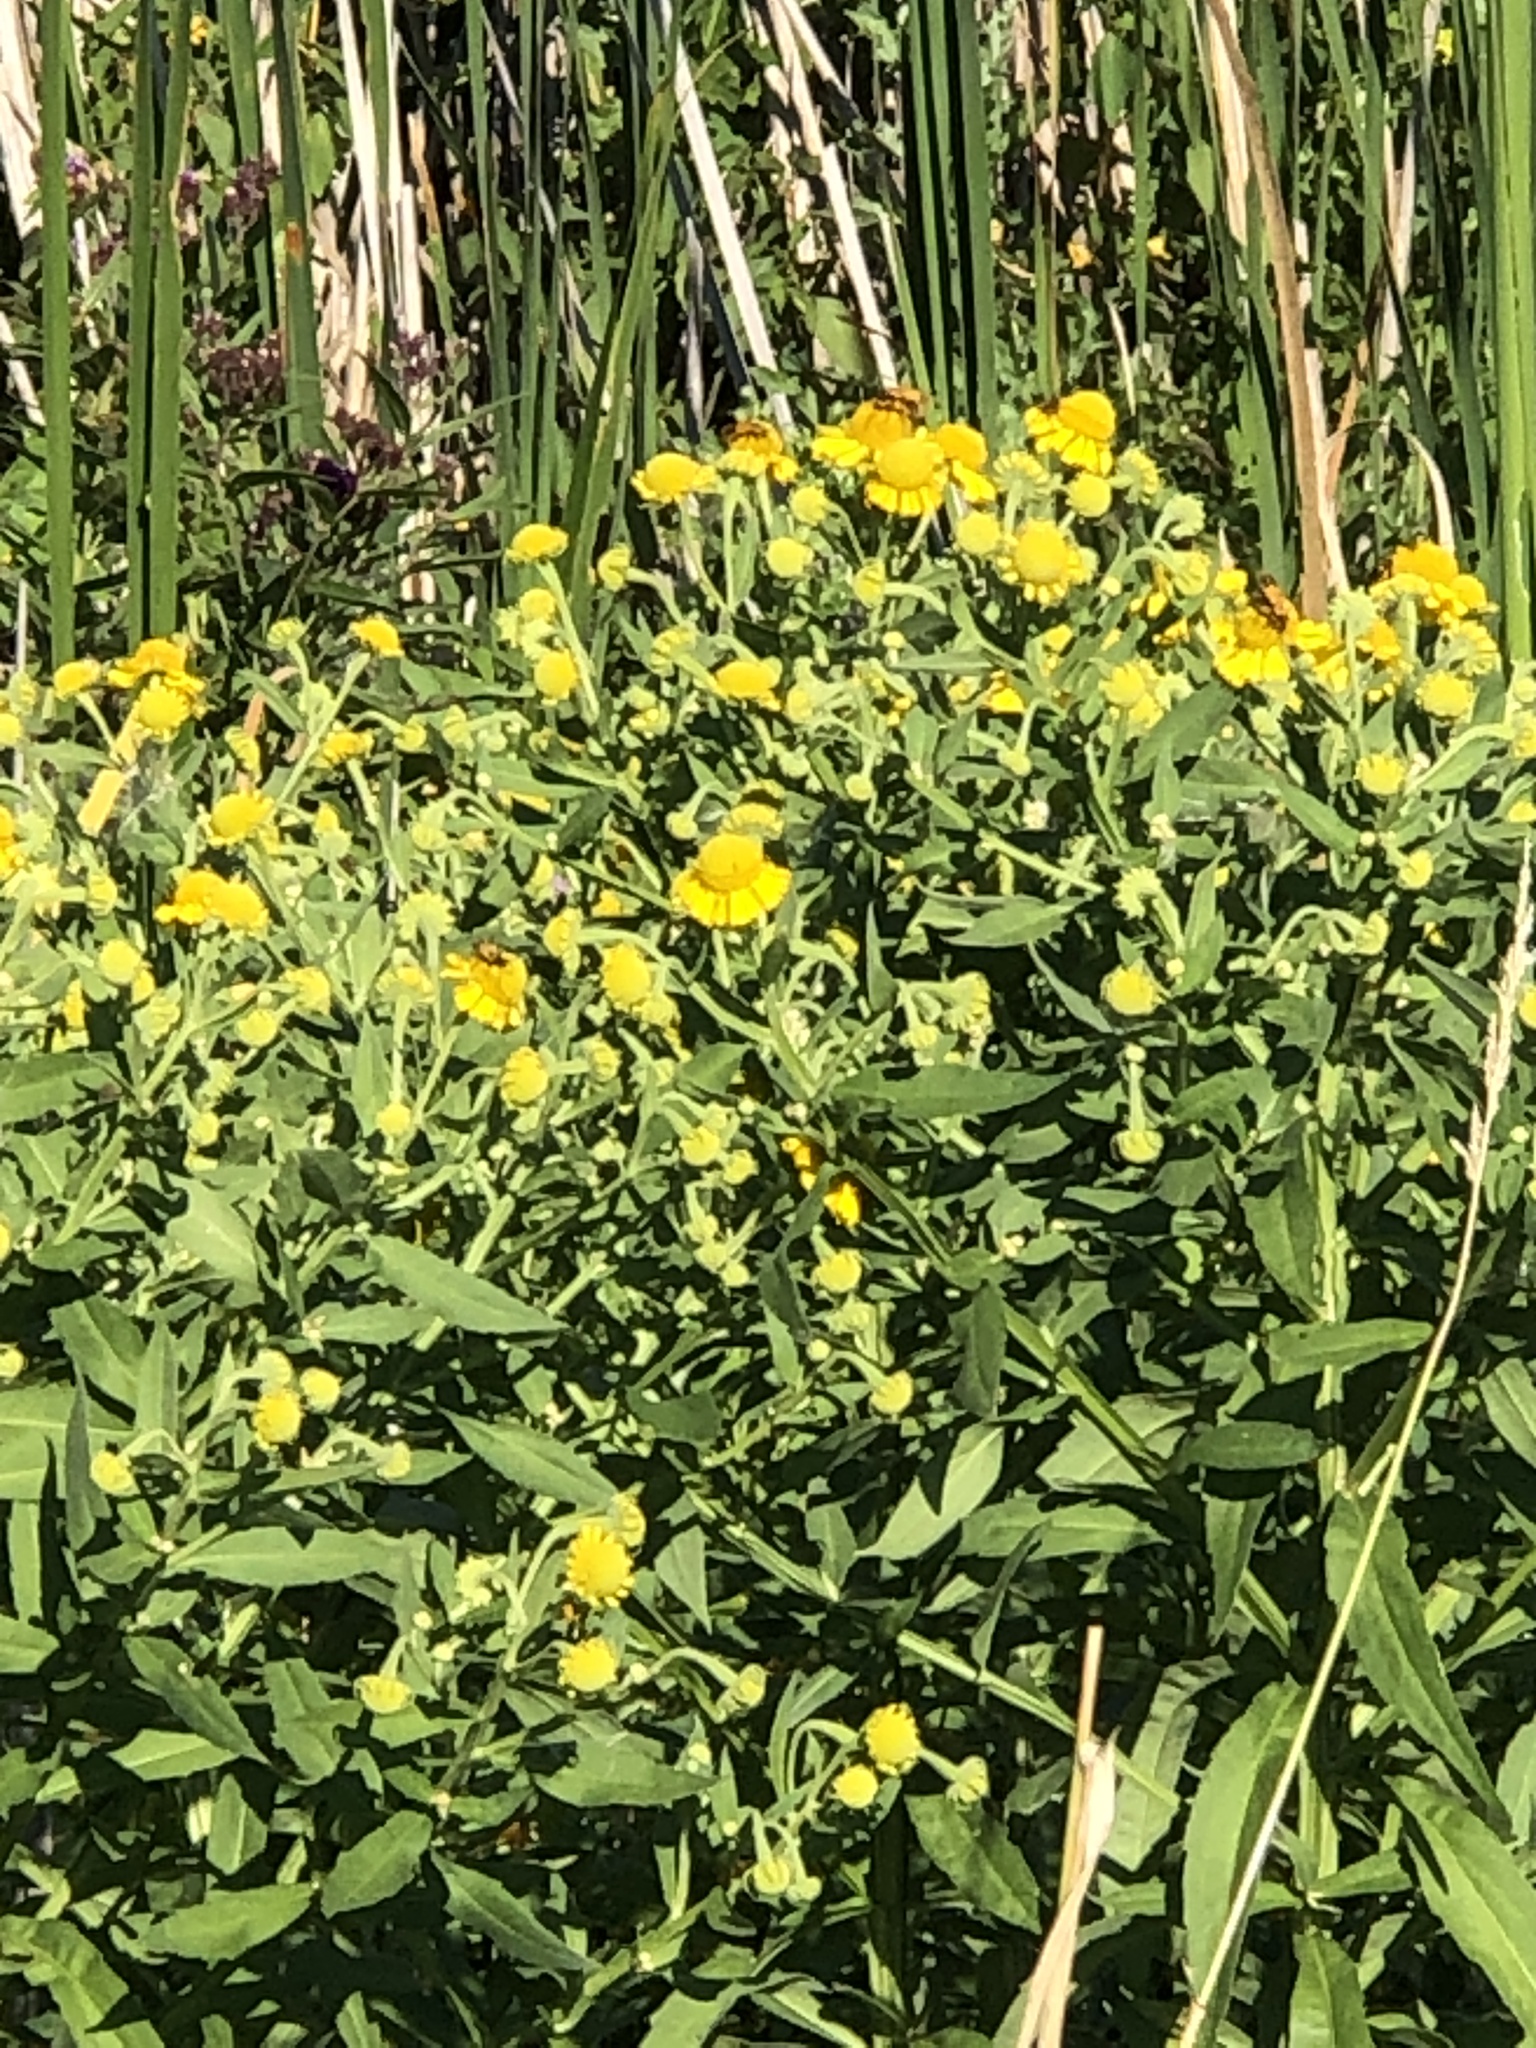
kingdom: Plantae
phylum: Tracheophyta
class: Magnoliopsida
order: Asterales
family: Asteraceae
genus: Helenium
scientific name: Helenium autumnale
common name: Sneezeweed
